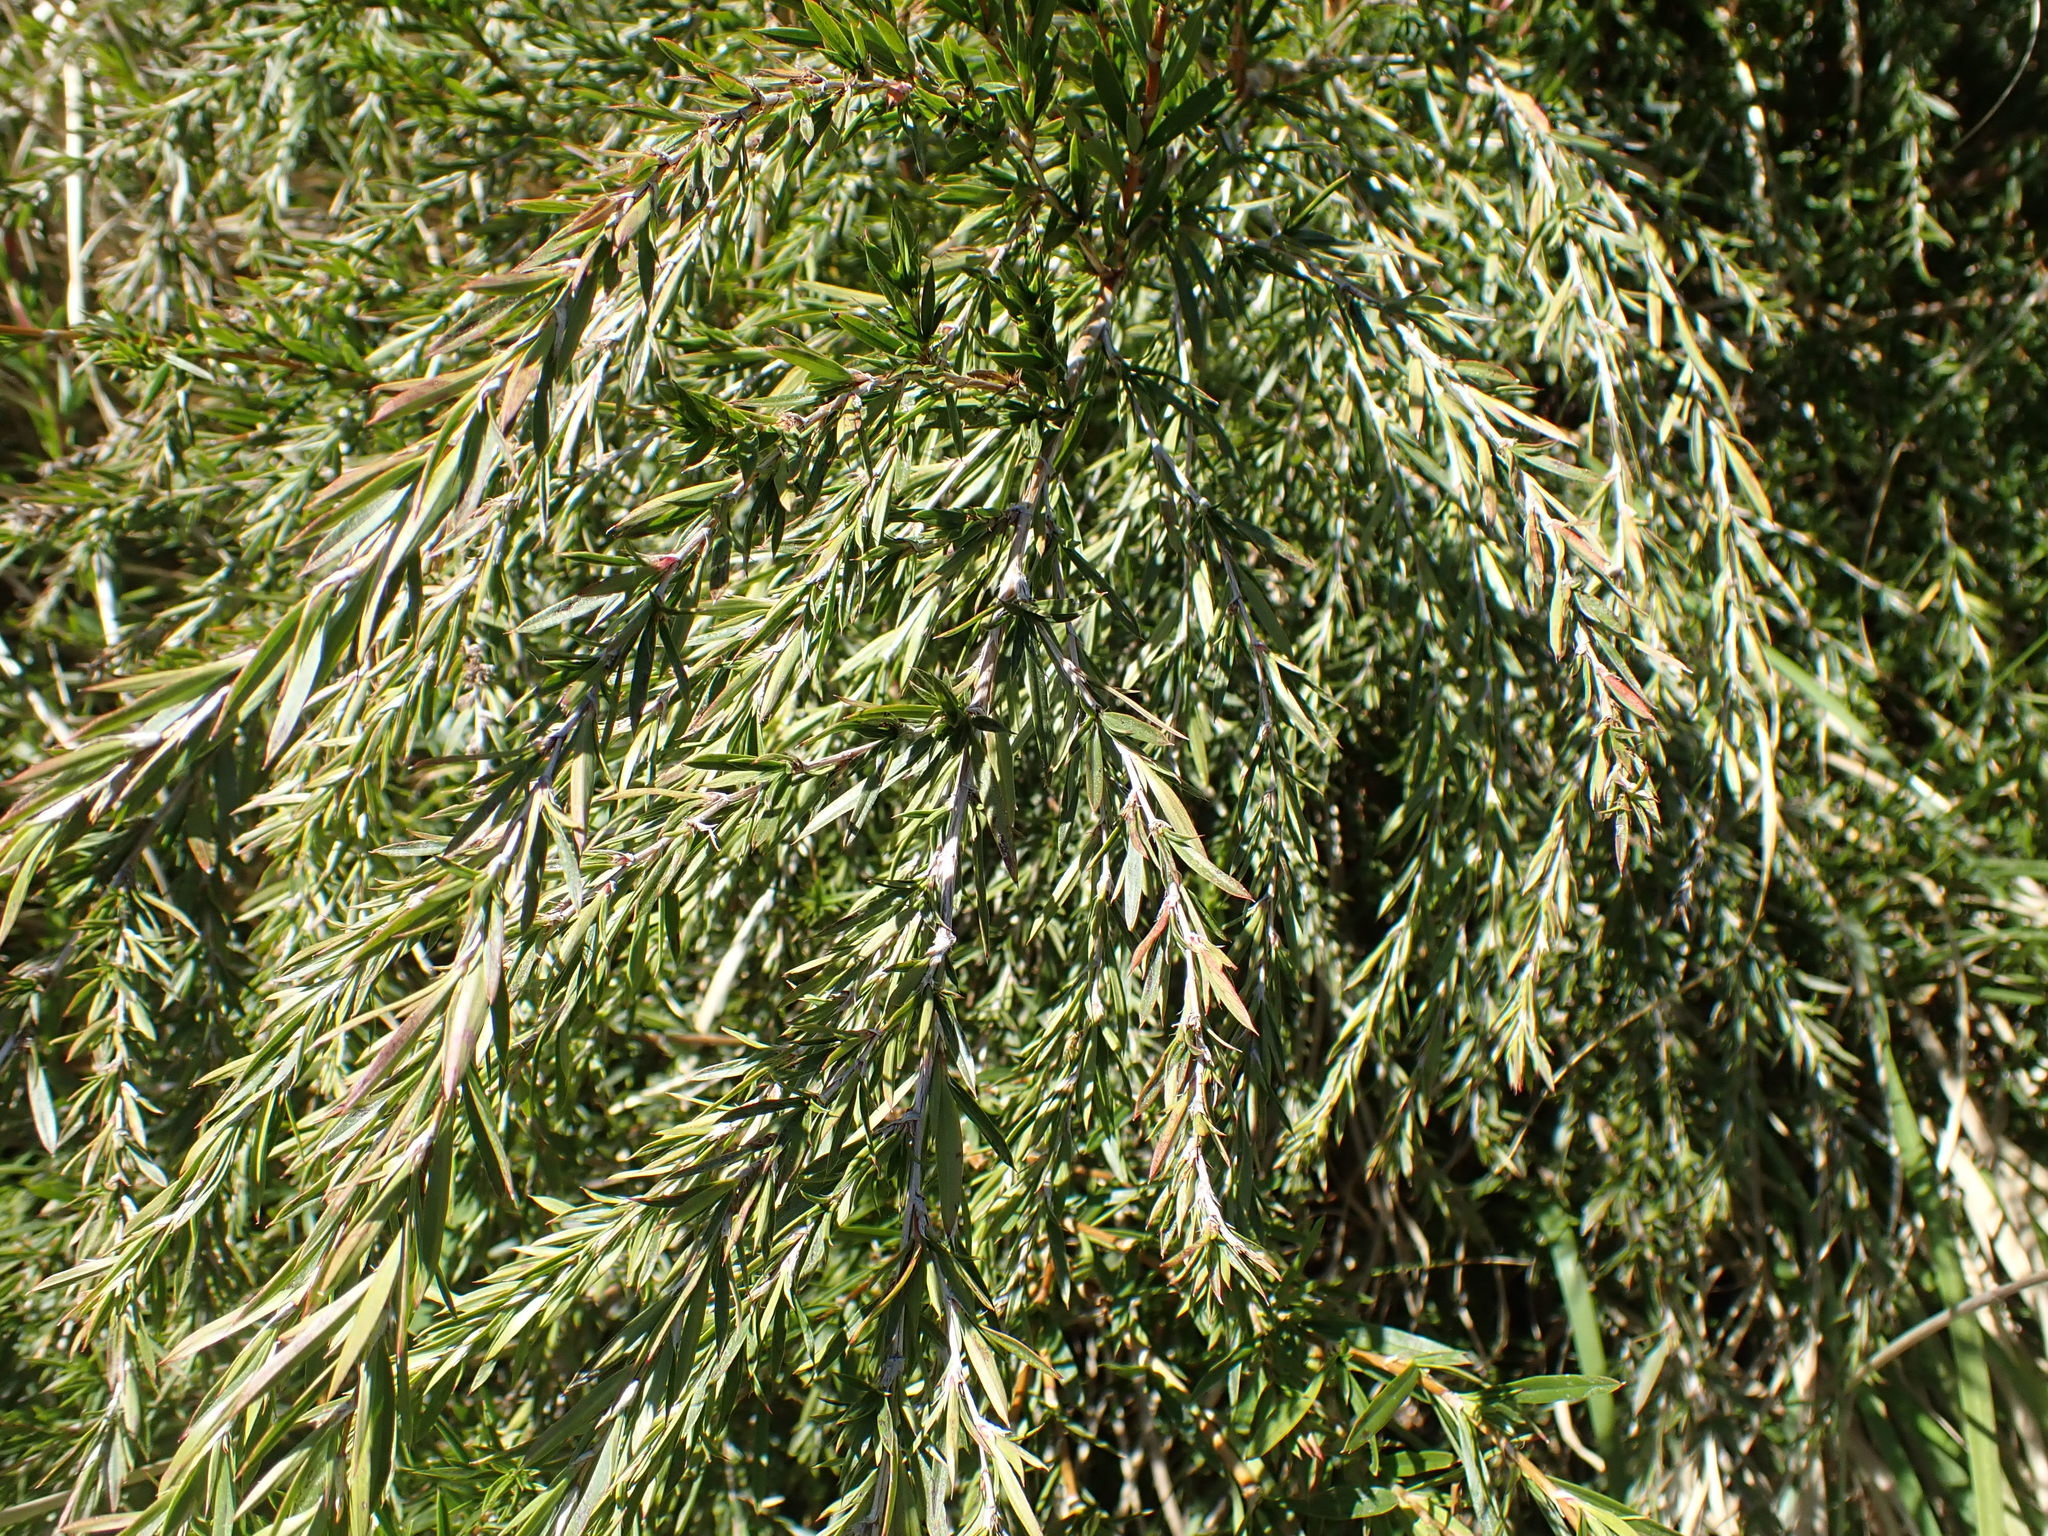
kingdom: Plantae
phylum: Tracheophyta
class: Magnoliopsida
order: Rosales
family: Rosaceae
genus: Cliffortia
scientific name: Cliffortia strobilifera
